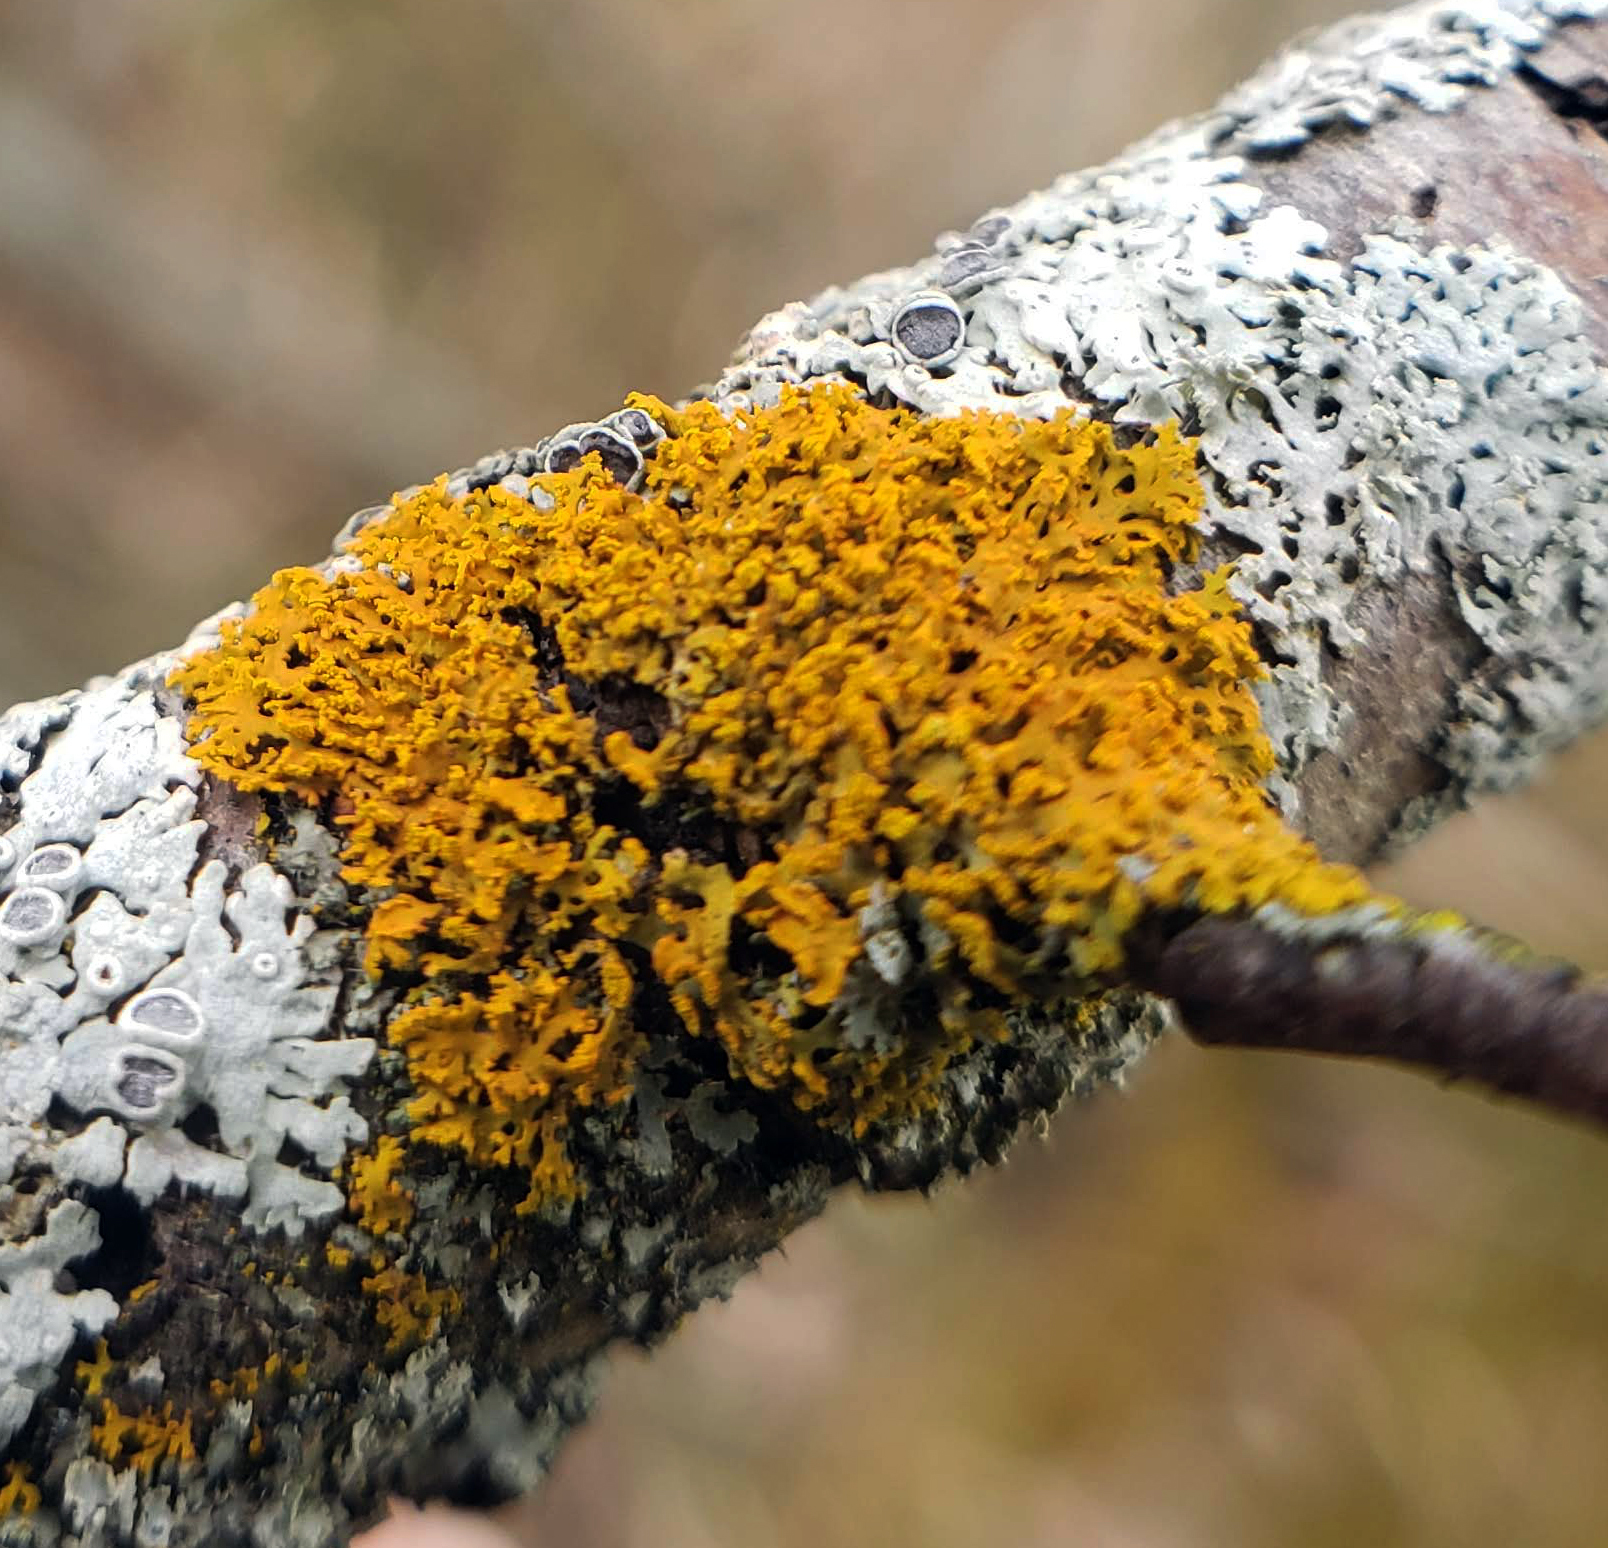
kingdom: Fungi
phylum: Ascomycota
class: Lecanoromycetes
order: Teloschistales
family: Teloschistaceae
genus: Gallowayella
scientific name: Gallowayella weberi
